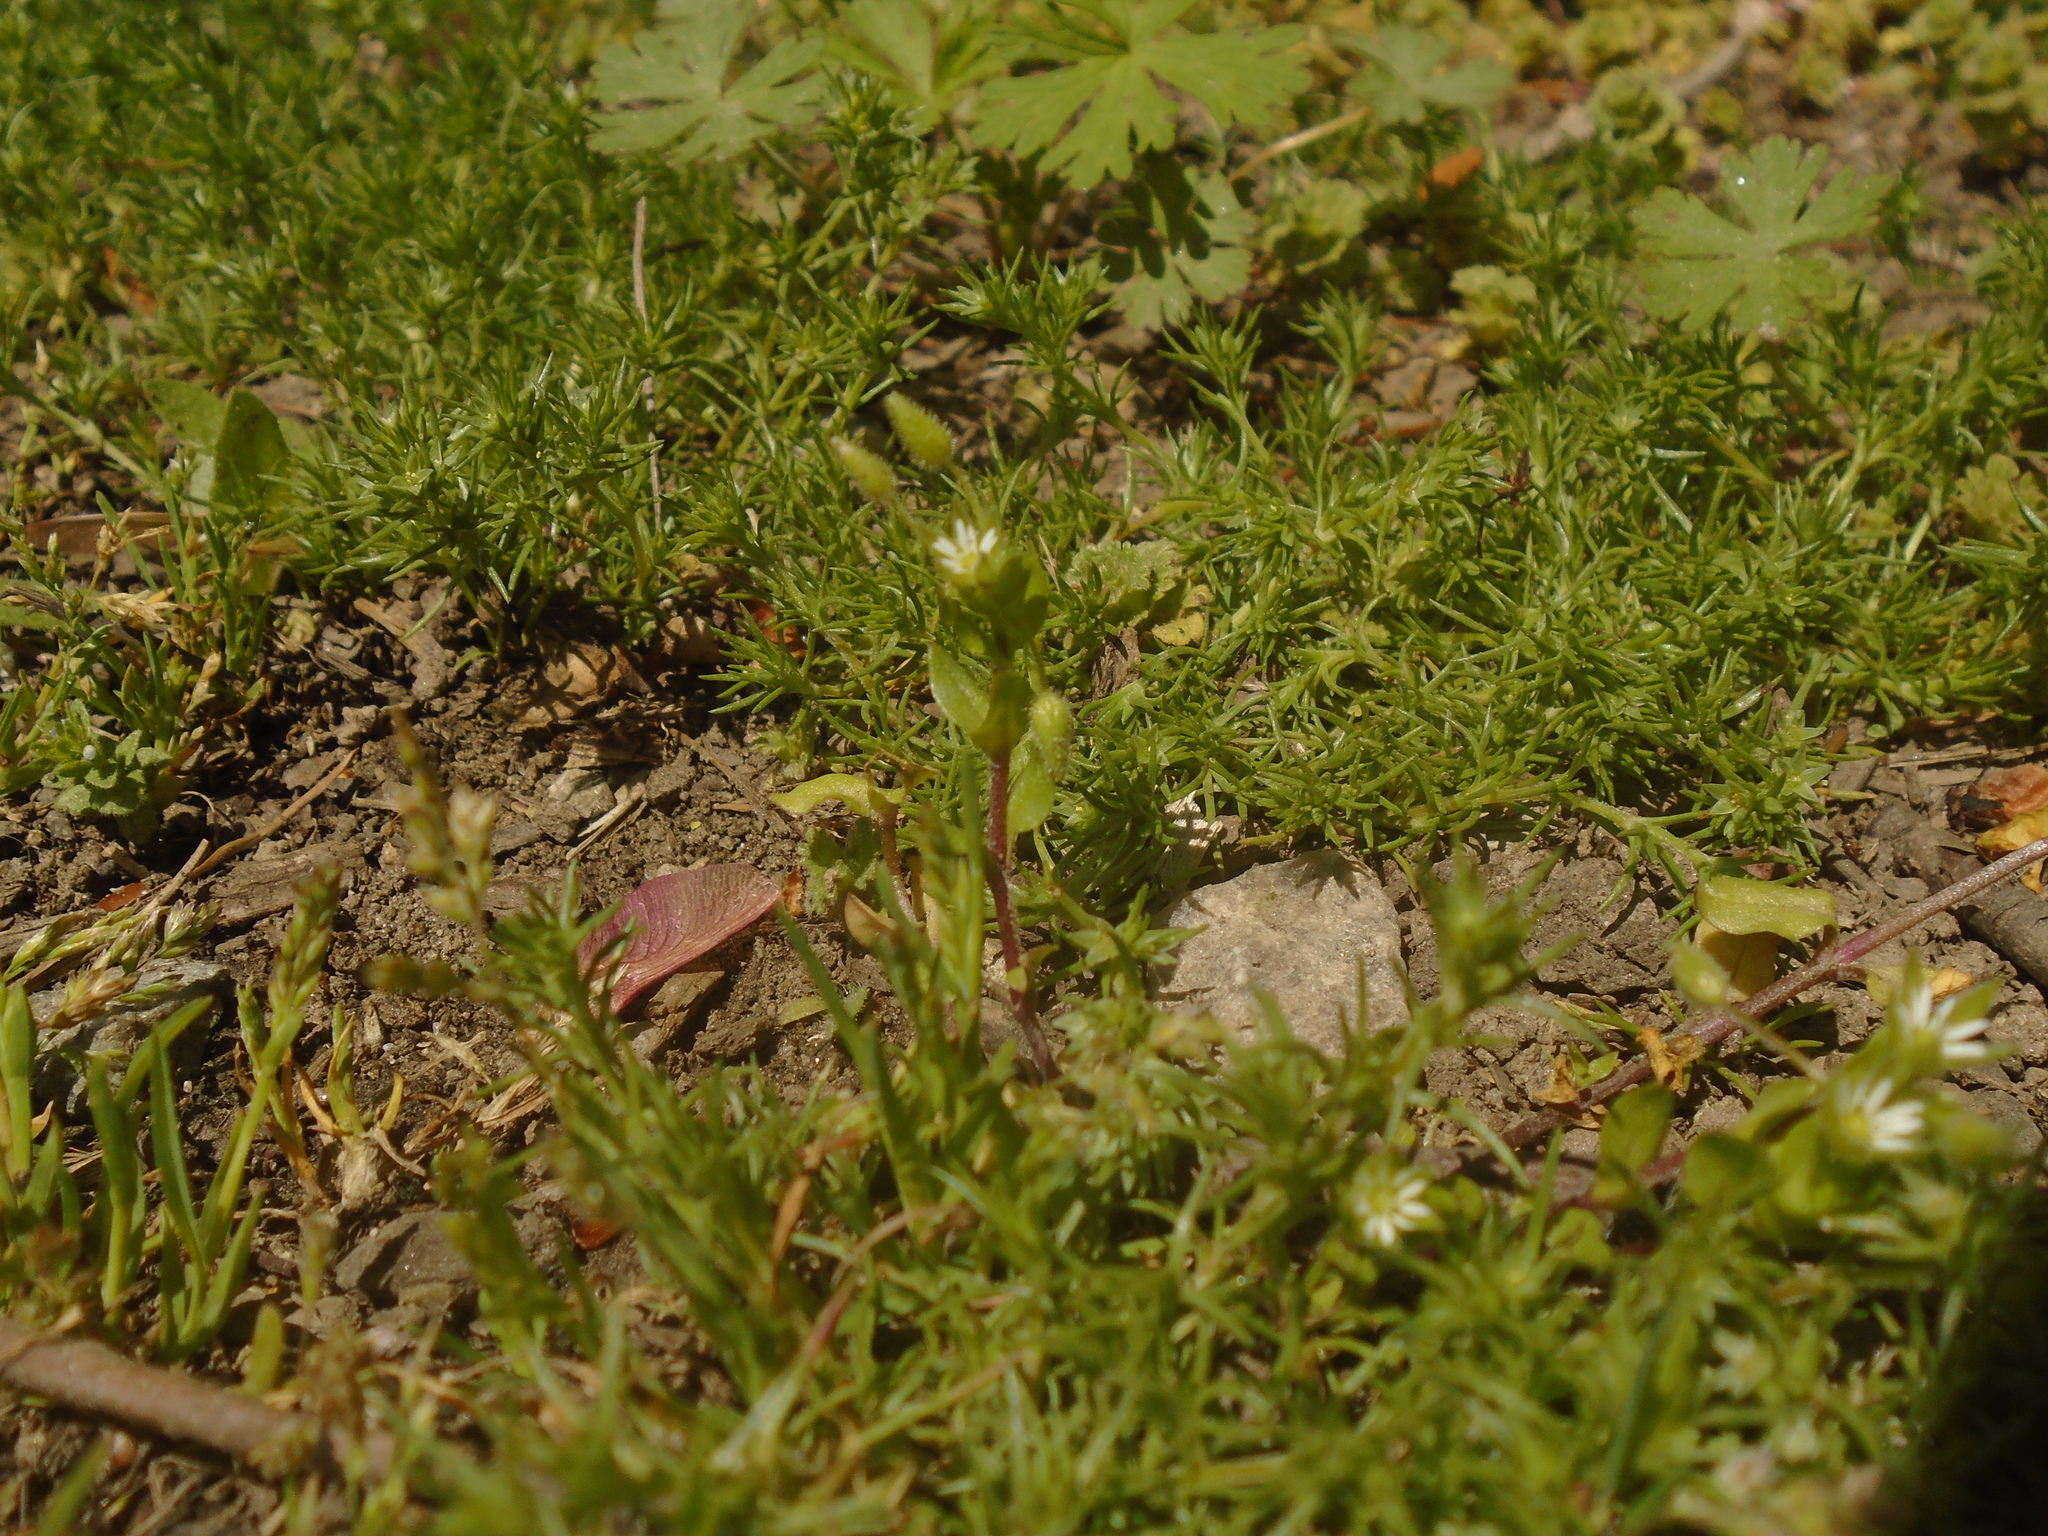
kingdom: Plantae
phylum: Tracheophyta
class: Magnoliopsida
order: Caryophyllales
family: Caryophyllaceae
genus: Cerastium
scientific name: Cerastium fontanum
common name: Common mouse-ear
